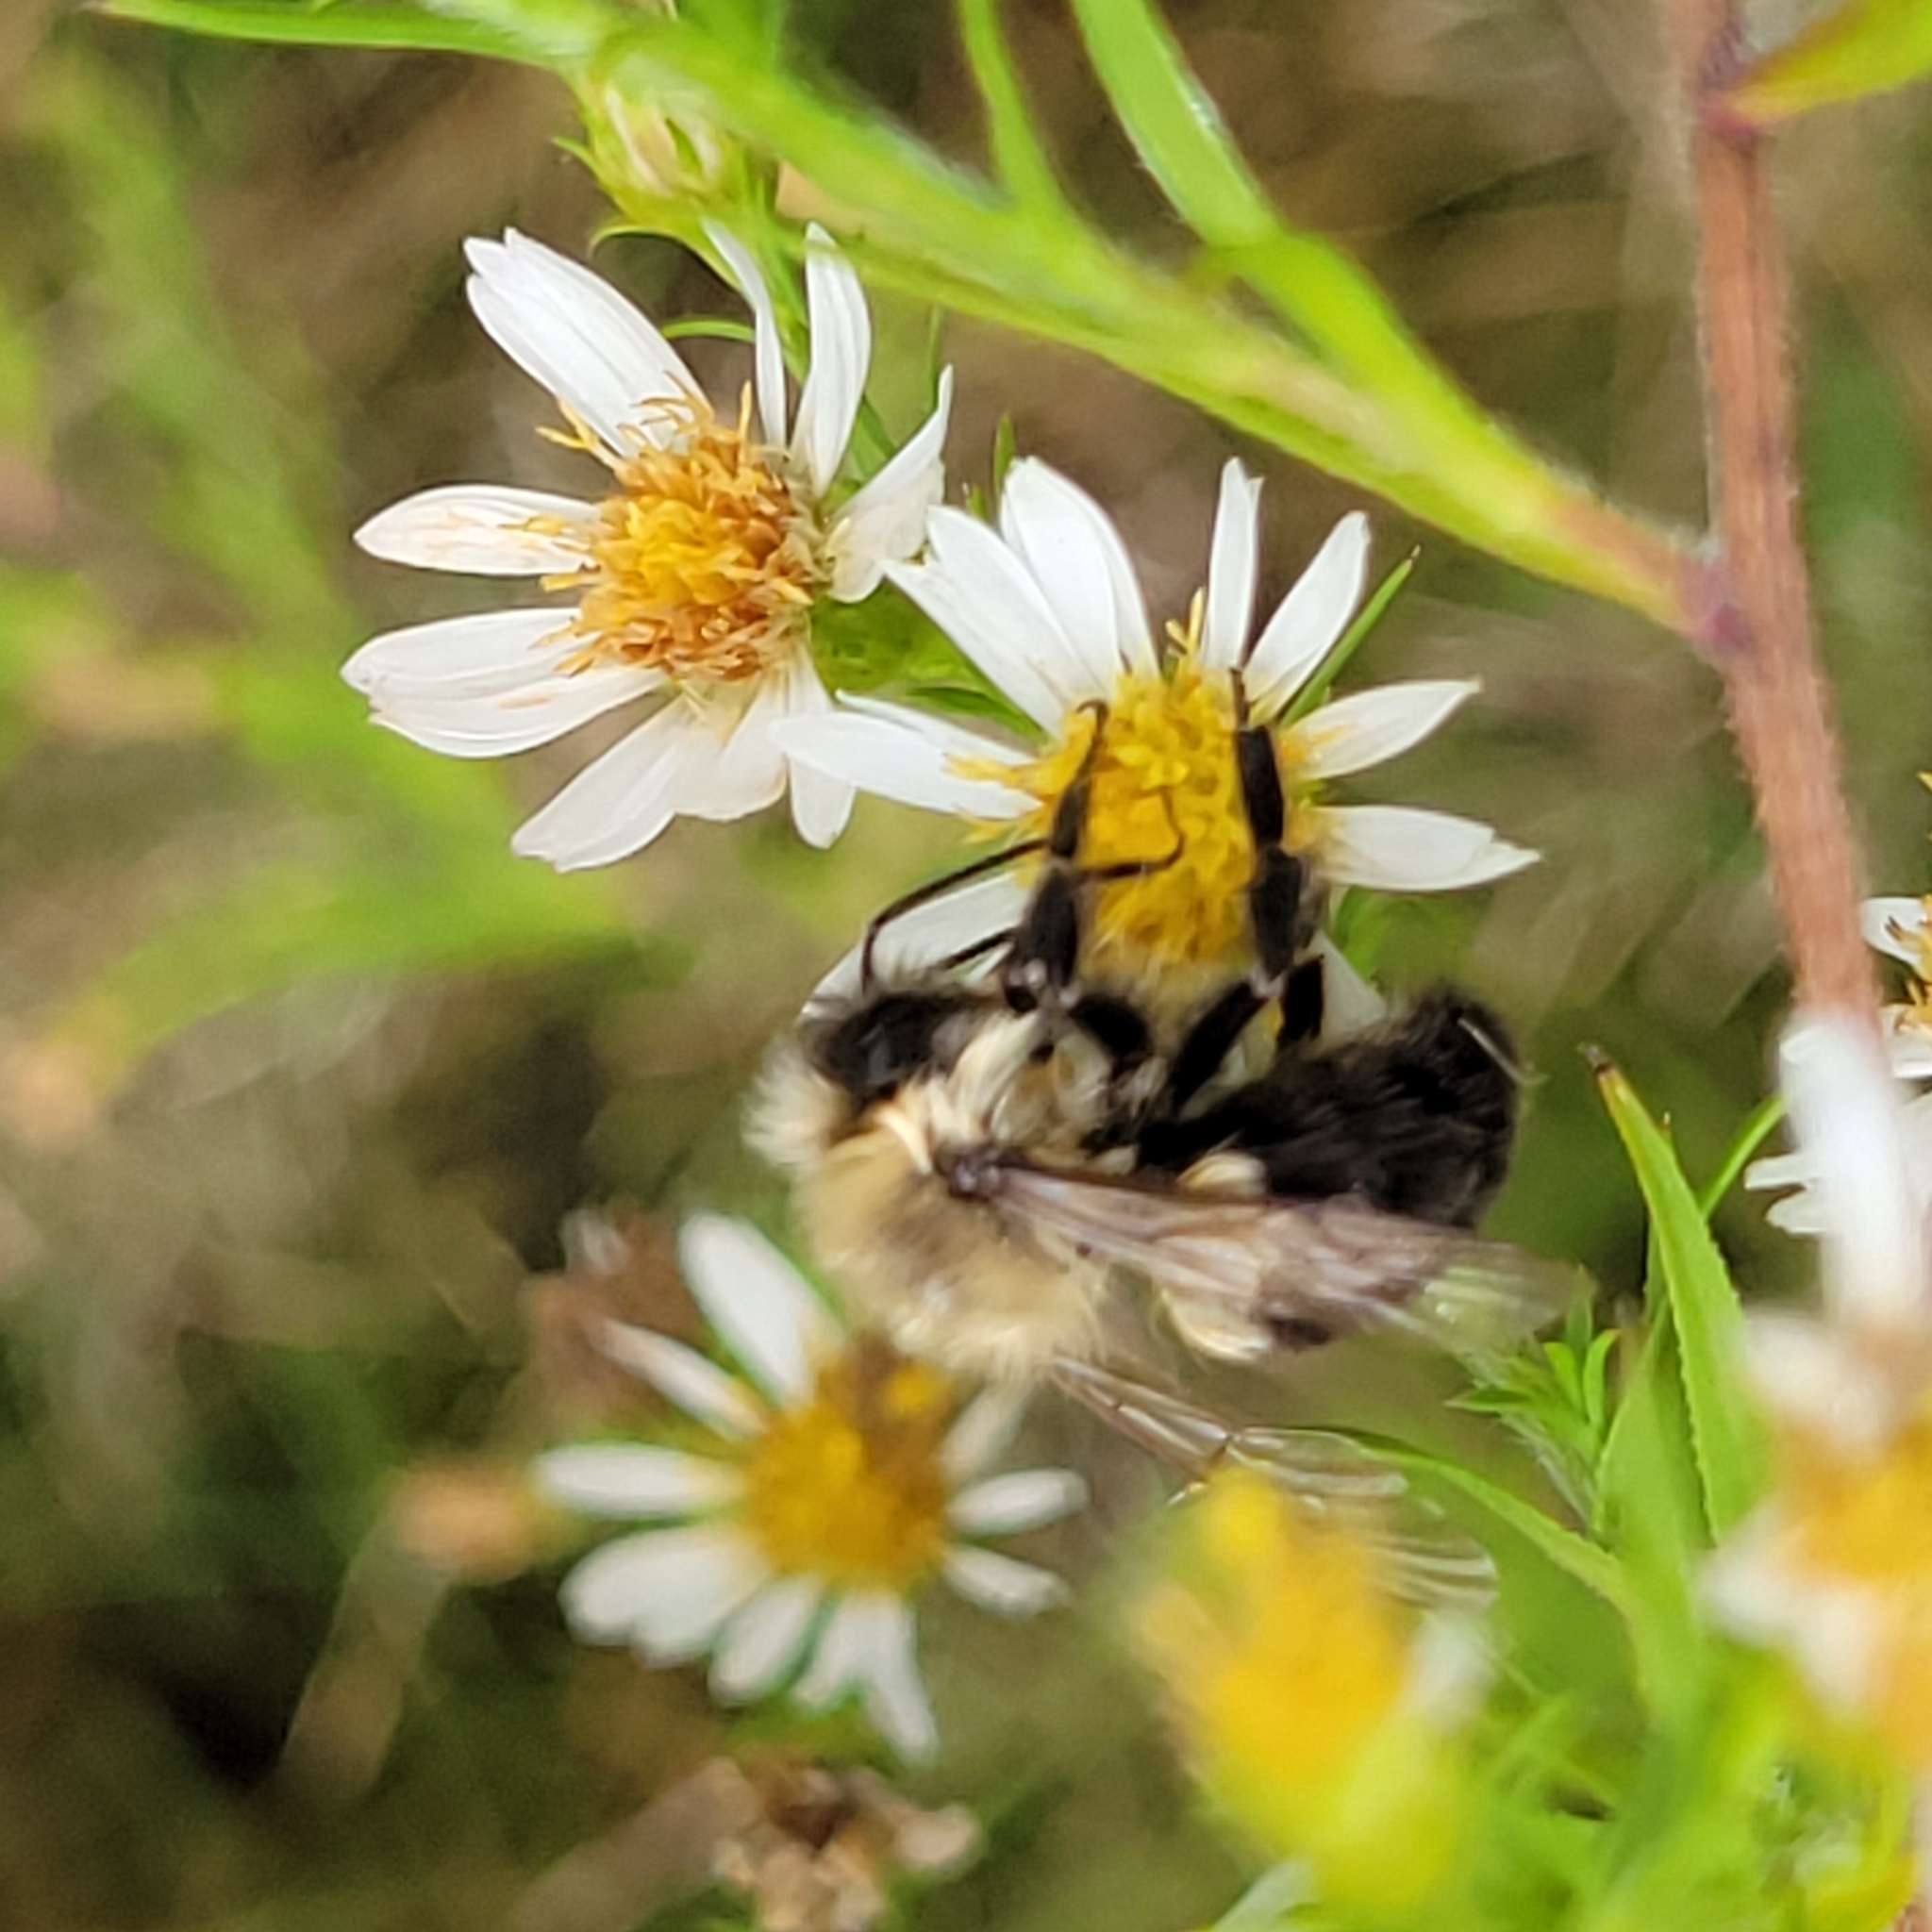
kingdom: Animalia
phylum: Arthropoda
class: Insecta
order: Hymenoptera
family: Apidae
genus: Bombus
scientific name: Bombus impatiens
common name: Common eastern bumble bee
